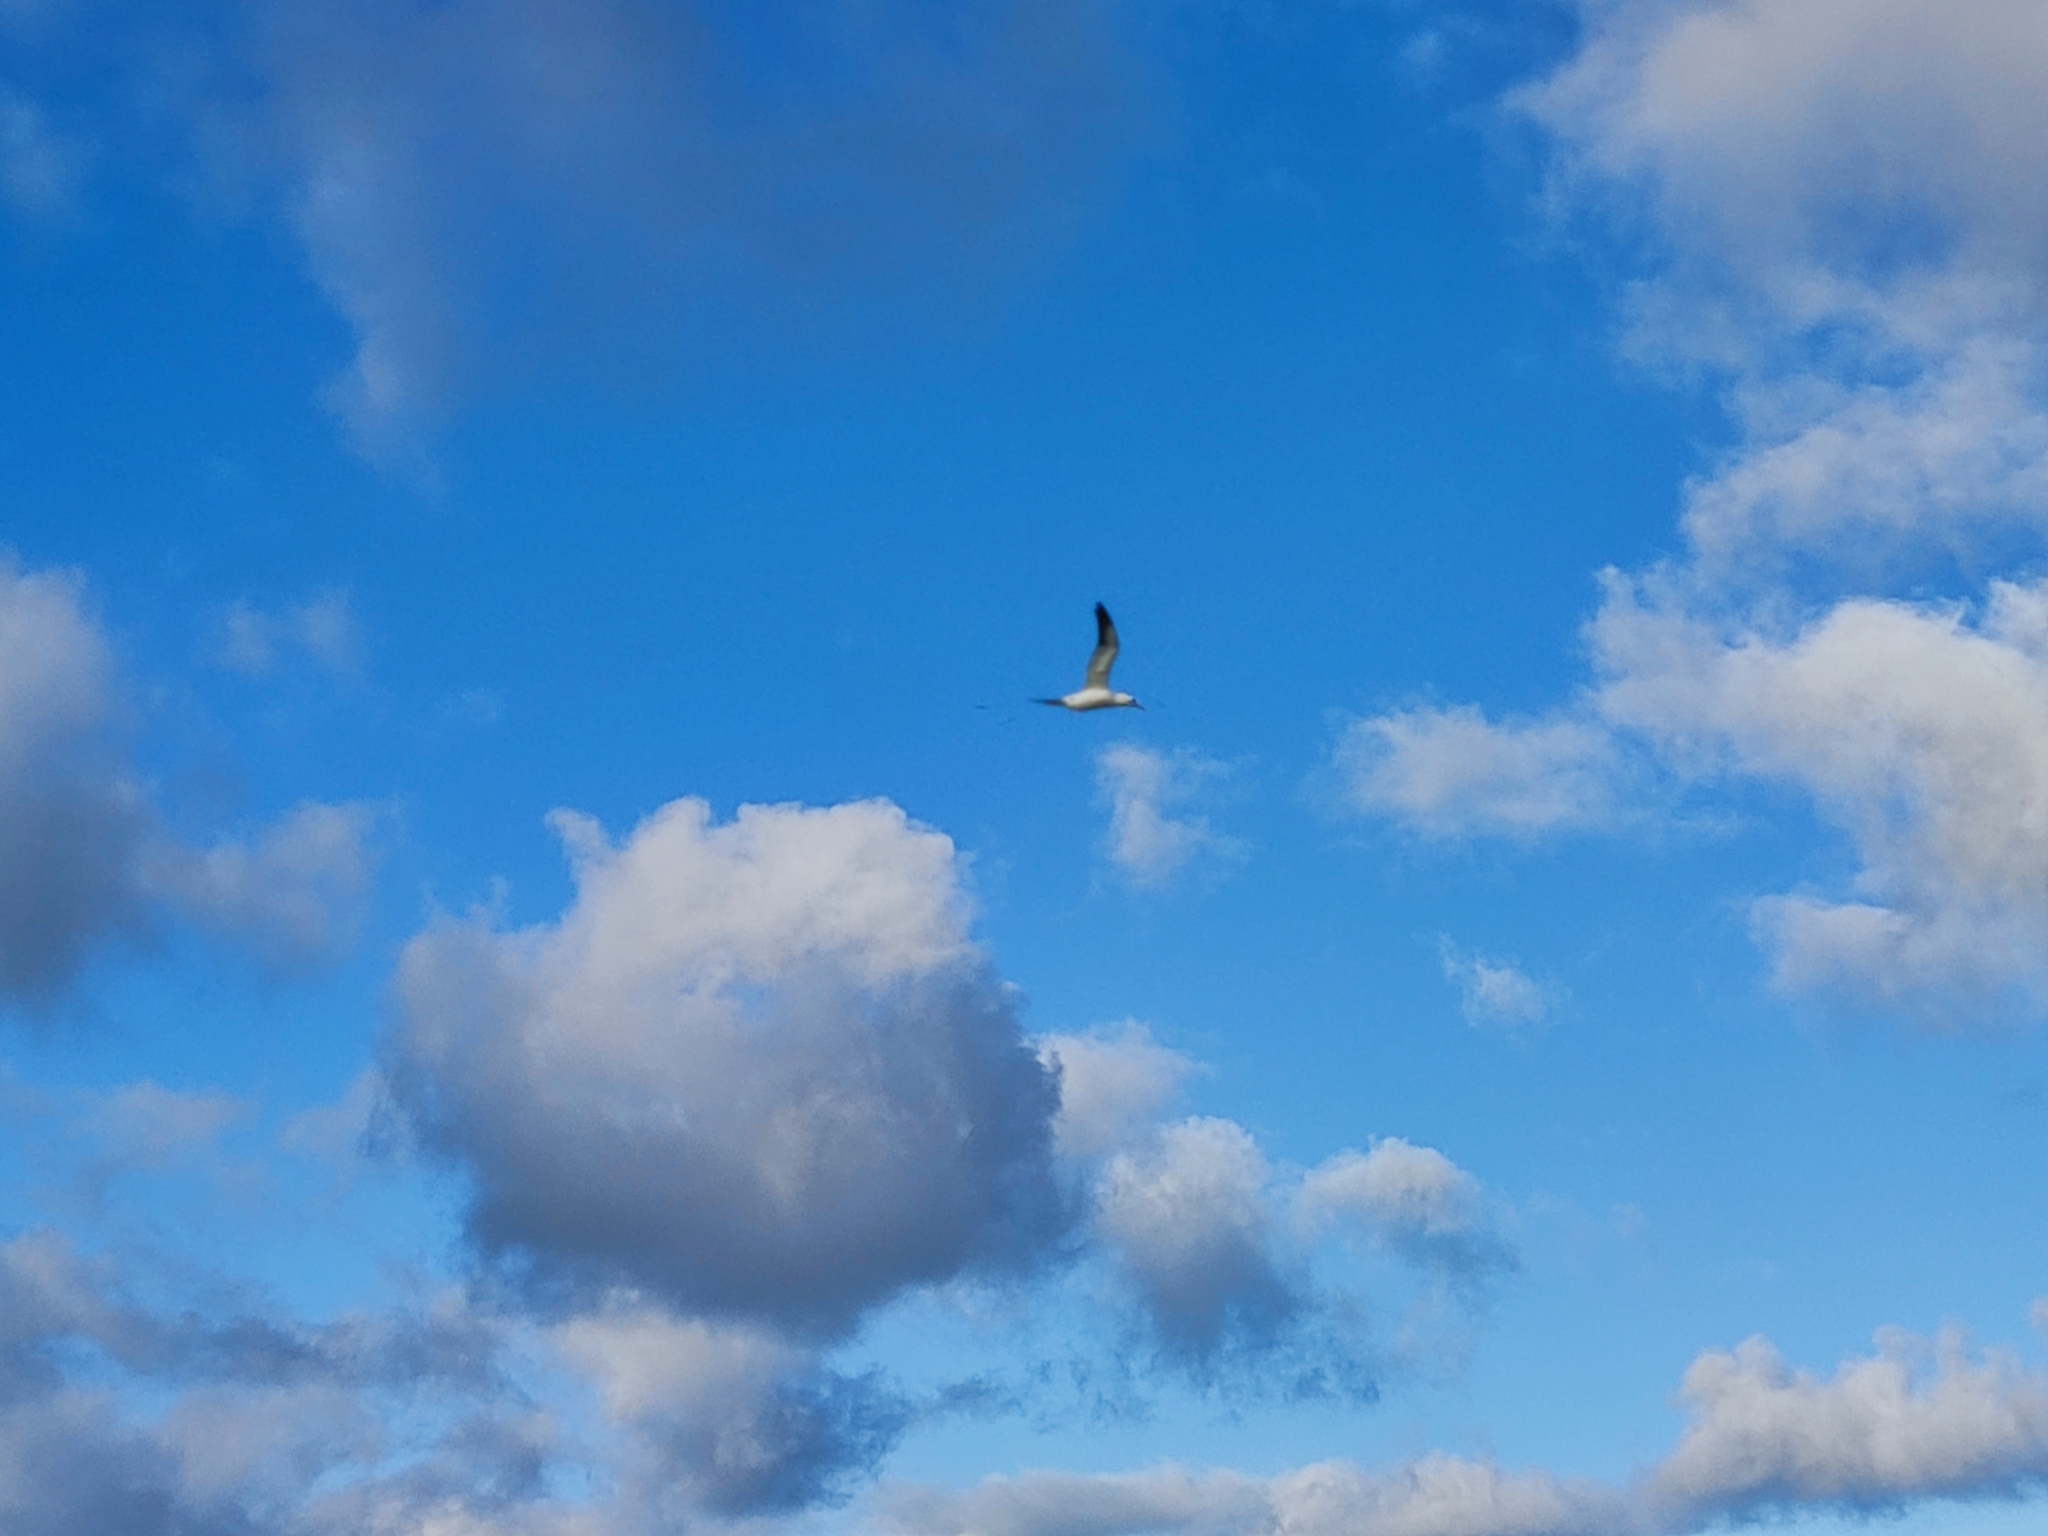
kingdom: Animalia
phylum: Chordata
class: Aves
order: Suliformes
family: Sulidae
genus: Morus
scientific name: Morus bassanus
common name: Northern gannet
